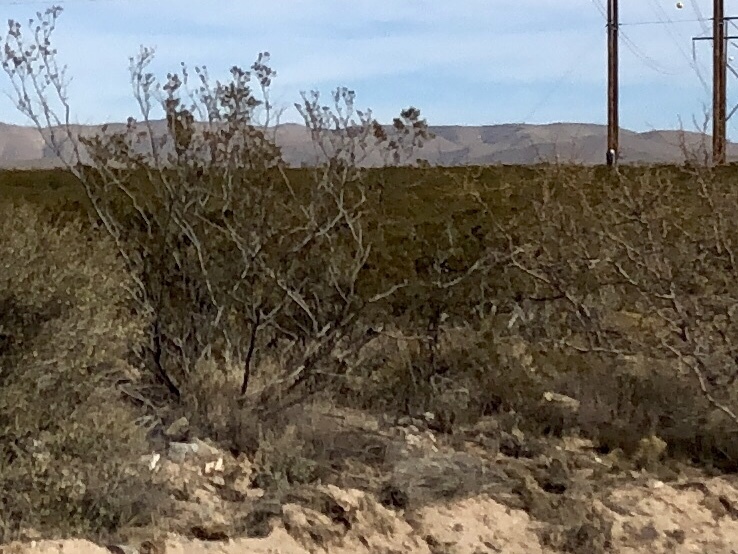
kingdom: Plantae
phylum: Tracheophyta
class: Magnoliopsida
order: Zygophyllales
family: Zygophyllaceae
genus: Larrea
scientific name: Larrea tridentata
